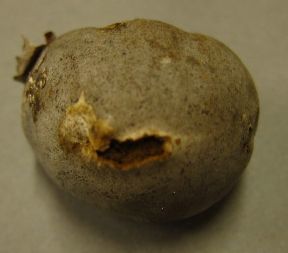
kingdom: Fungi
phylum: Basidiomycota
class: Agaricomycetes
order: Agaricales
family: Lycoperdaceae
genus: Bovista
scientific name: Bovista plumbea
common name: Grey puffball
